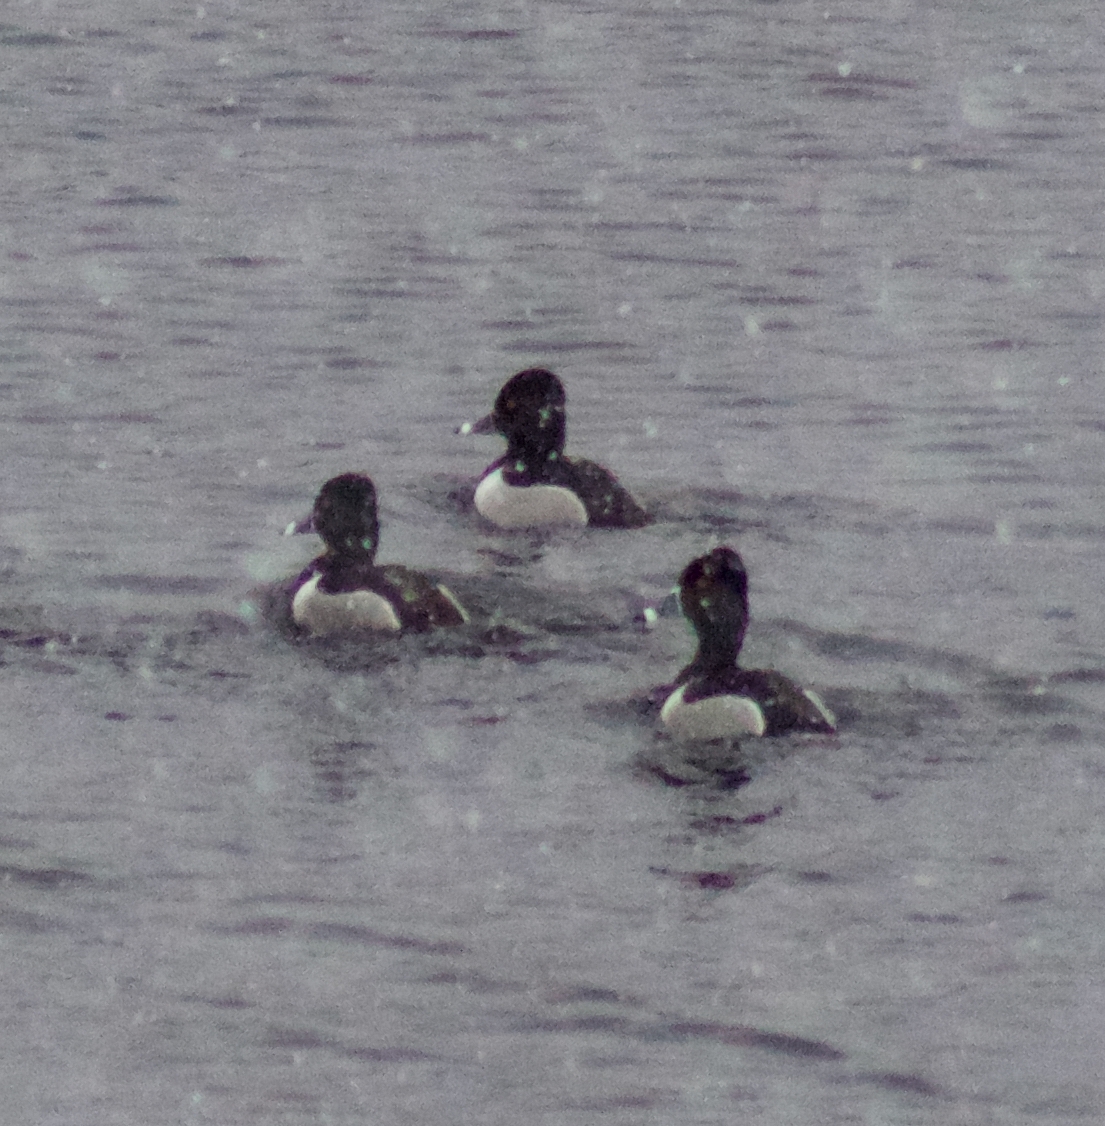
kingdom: Animalia
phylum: Chordata
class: Aves
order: Anseriformes
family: Anatidae
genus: Aythya
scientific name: Aythya collaris
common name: Ring-necked duck
